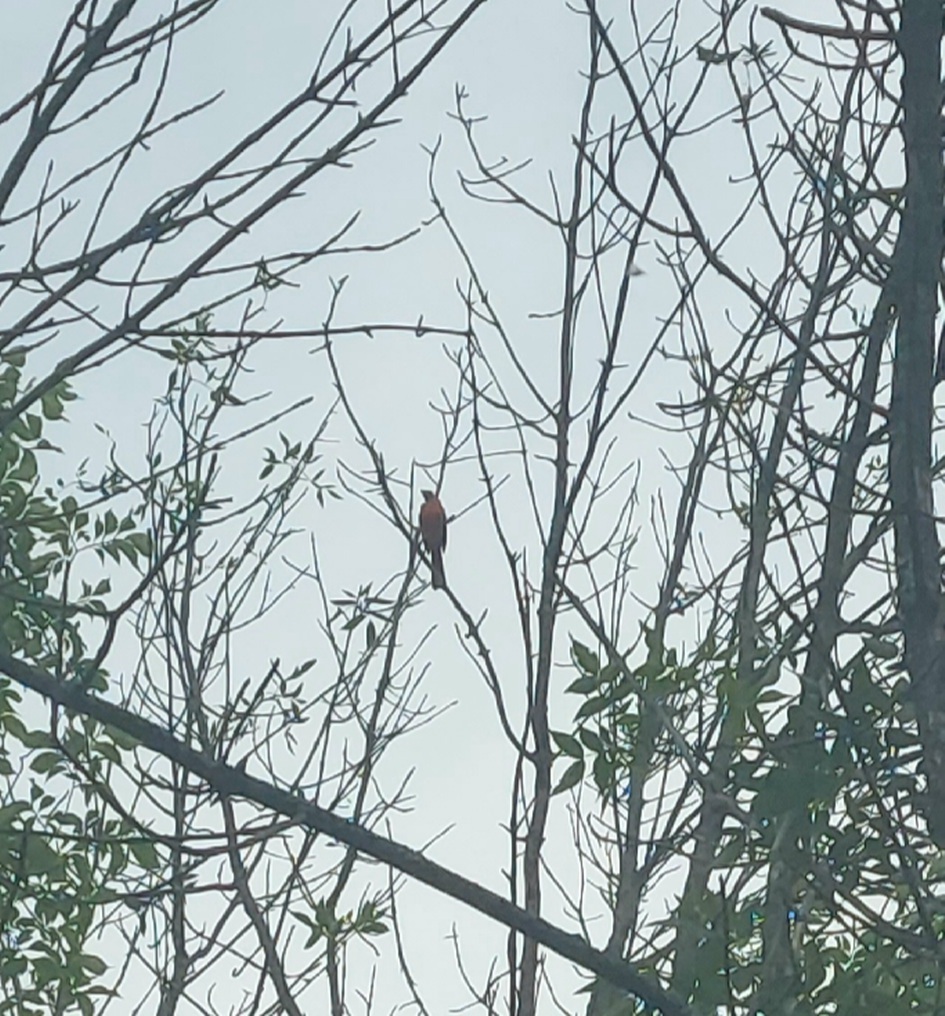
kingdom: Animalia
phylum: Chordata
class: Aves
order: Passeriformes
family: Cardinalidae
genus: Cardinalis
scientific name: Cardinalis cardinalis
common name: Northern cardinal
